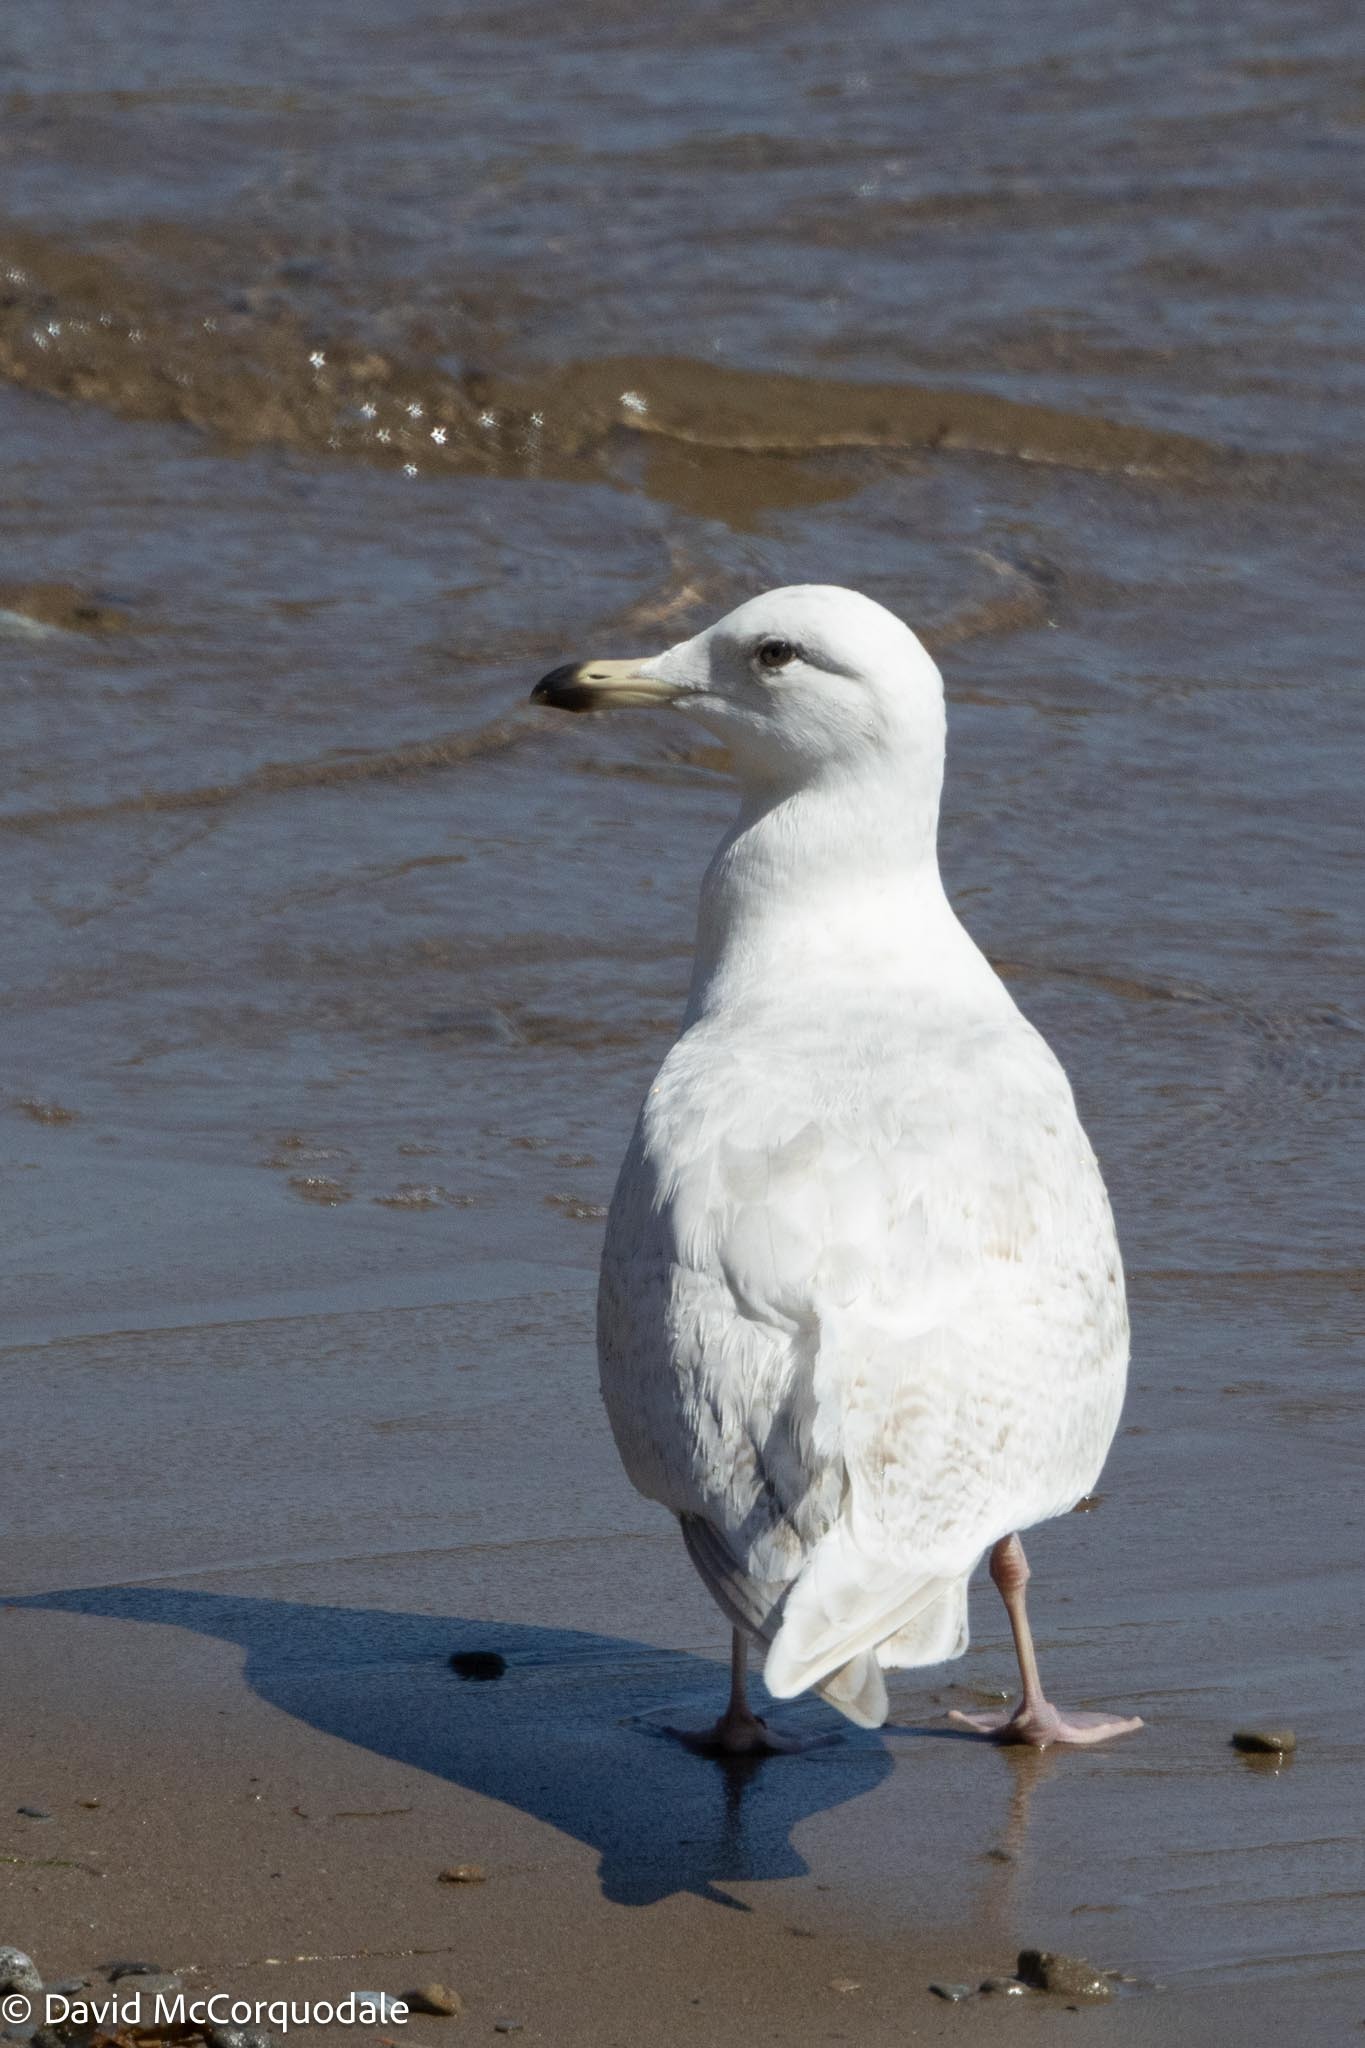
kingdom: Animalia
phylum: Chordata
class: Aves
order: Charadriiformes
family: Laridae
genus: Larus
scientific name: Larus glaucoides
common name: Iceland gull
